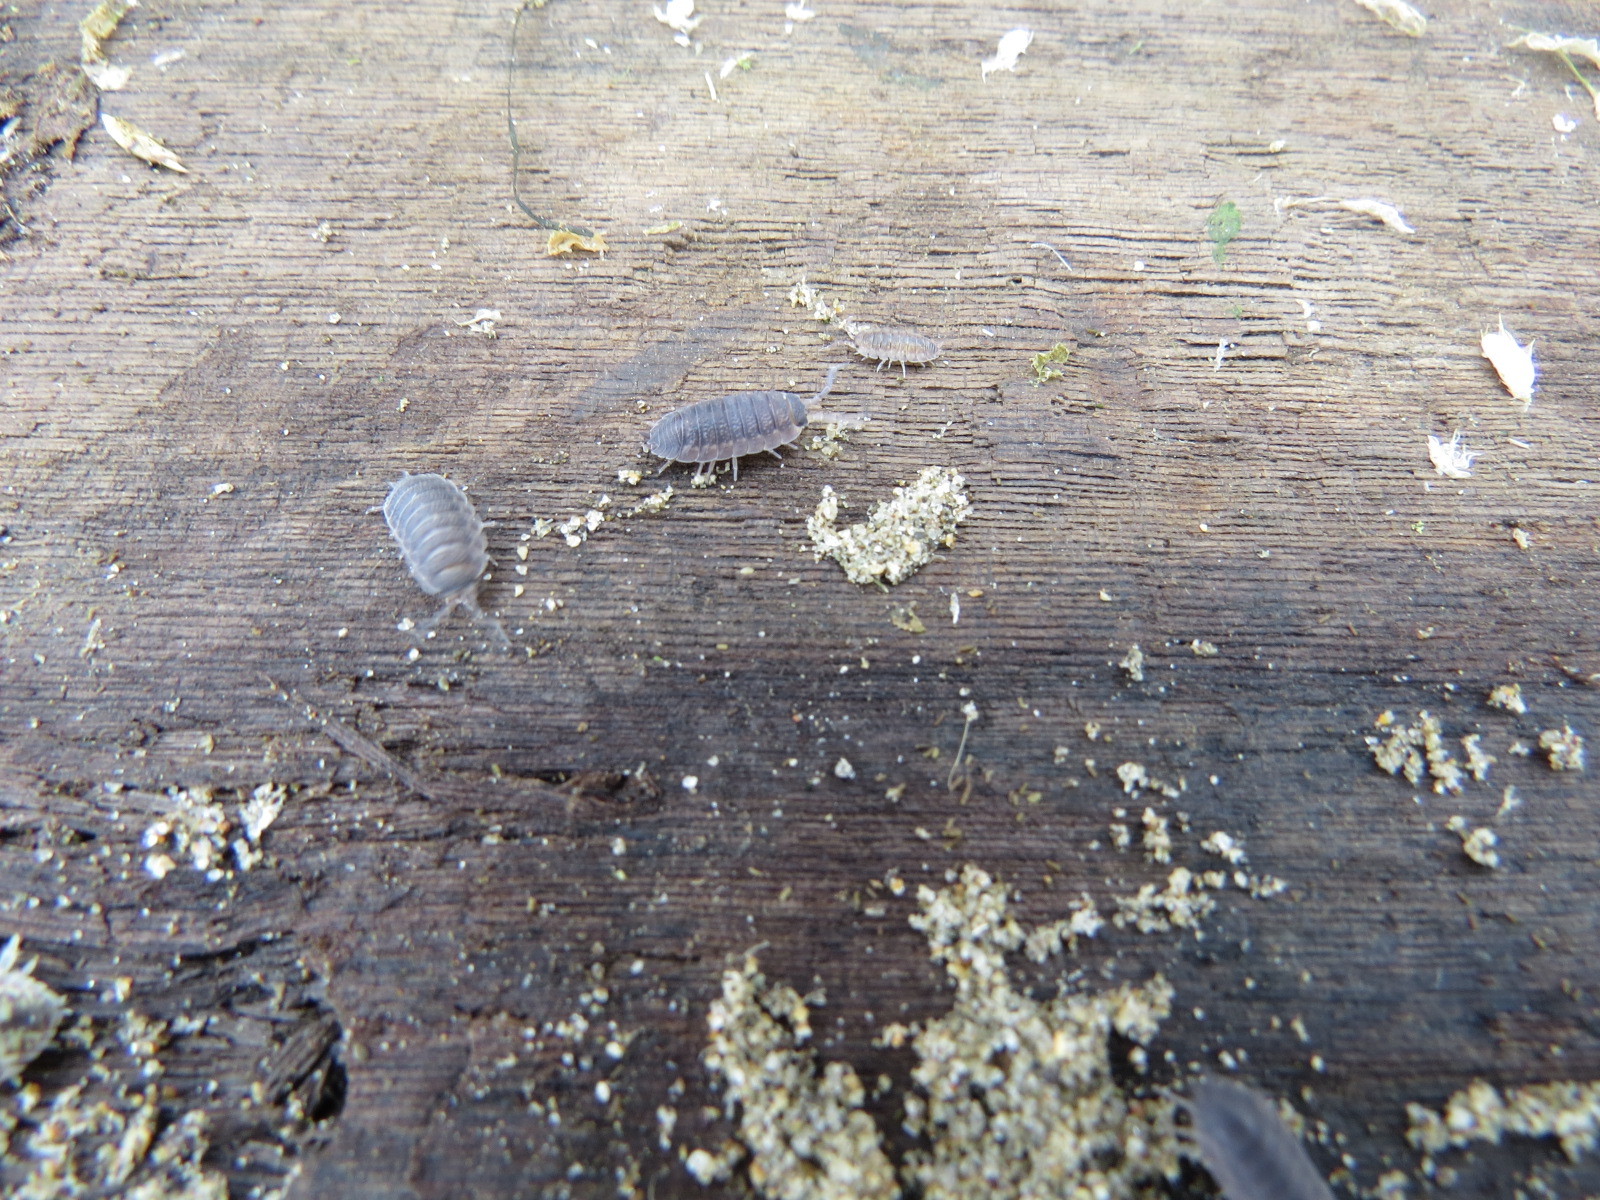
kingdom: Animalia
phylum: Arthropoda
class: Malacostraca
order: Isopoda
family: Porcellionidae
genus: Porcellio
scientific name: Porcellio scaber
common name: Common rough woodlouse
